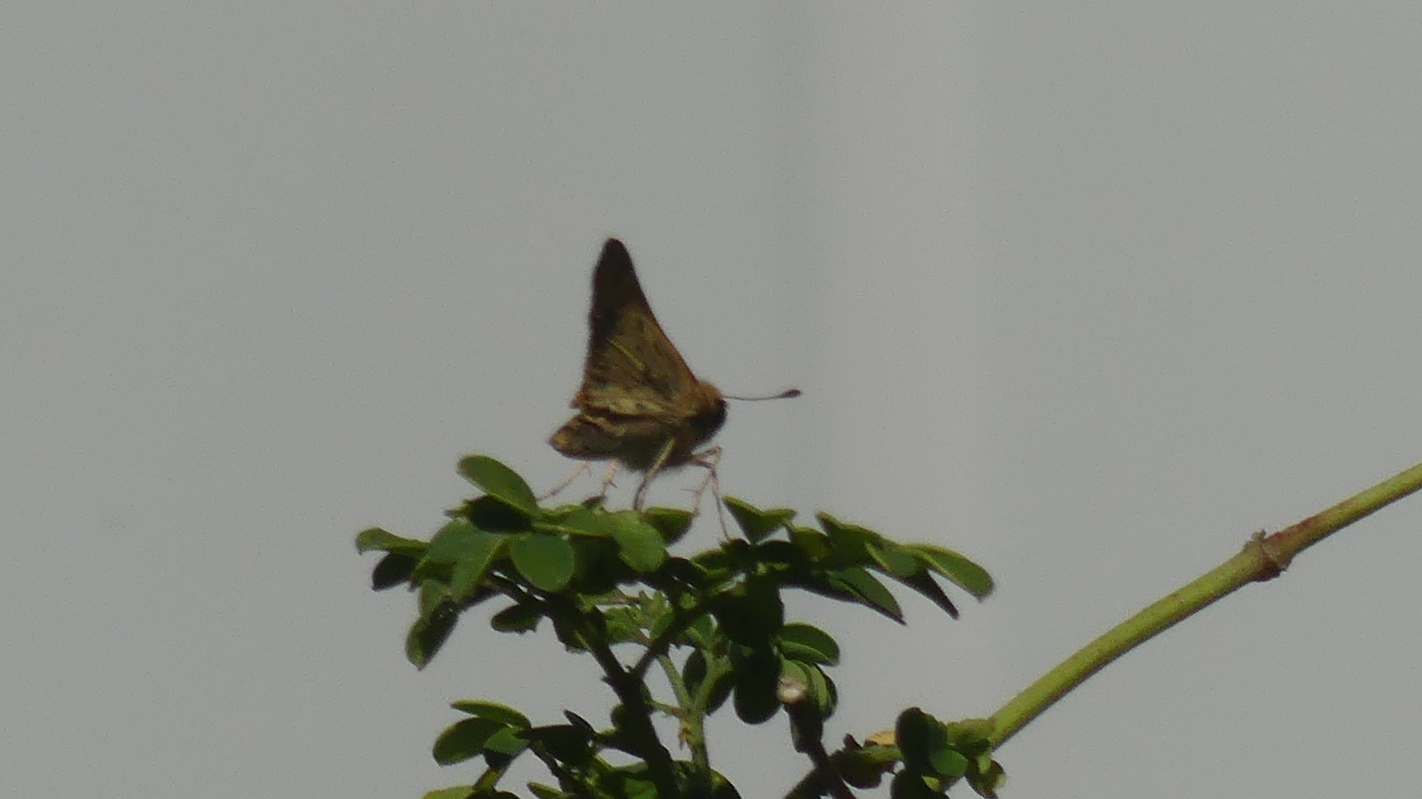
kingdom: Animalia
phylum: Arthropoda
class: Insecta
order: Lepidoptera
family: Hesperiidae
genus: Hylephila
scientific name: Hylephila phyleus
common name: Fiery skipper
